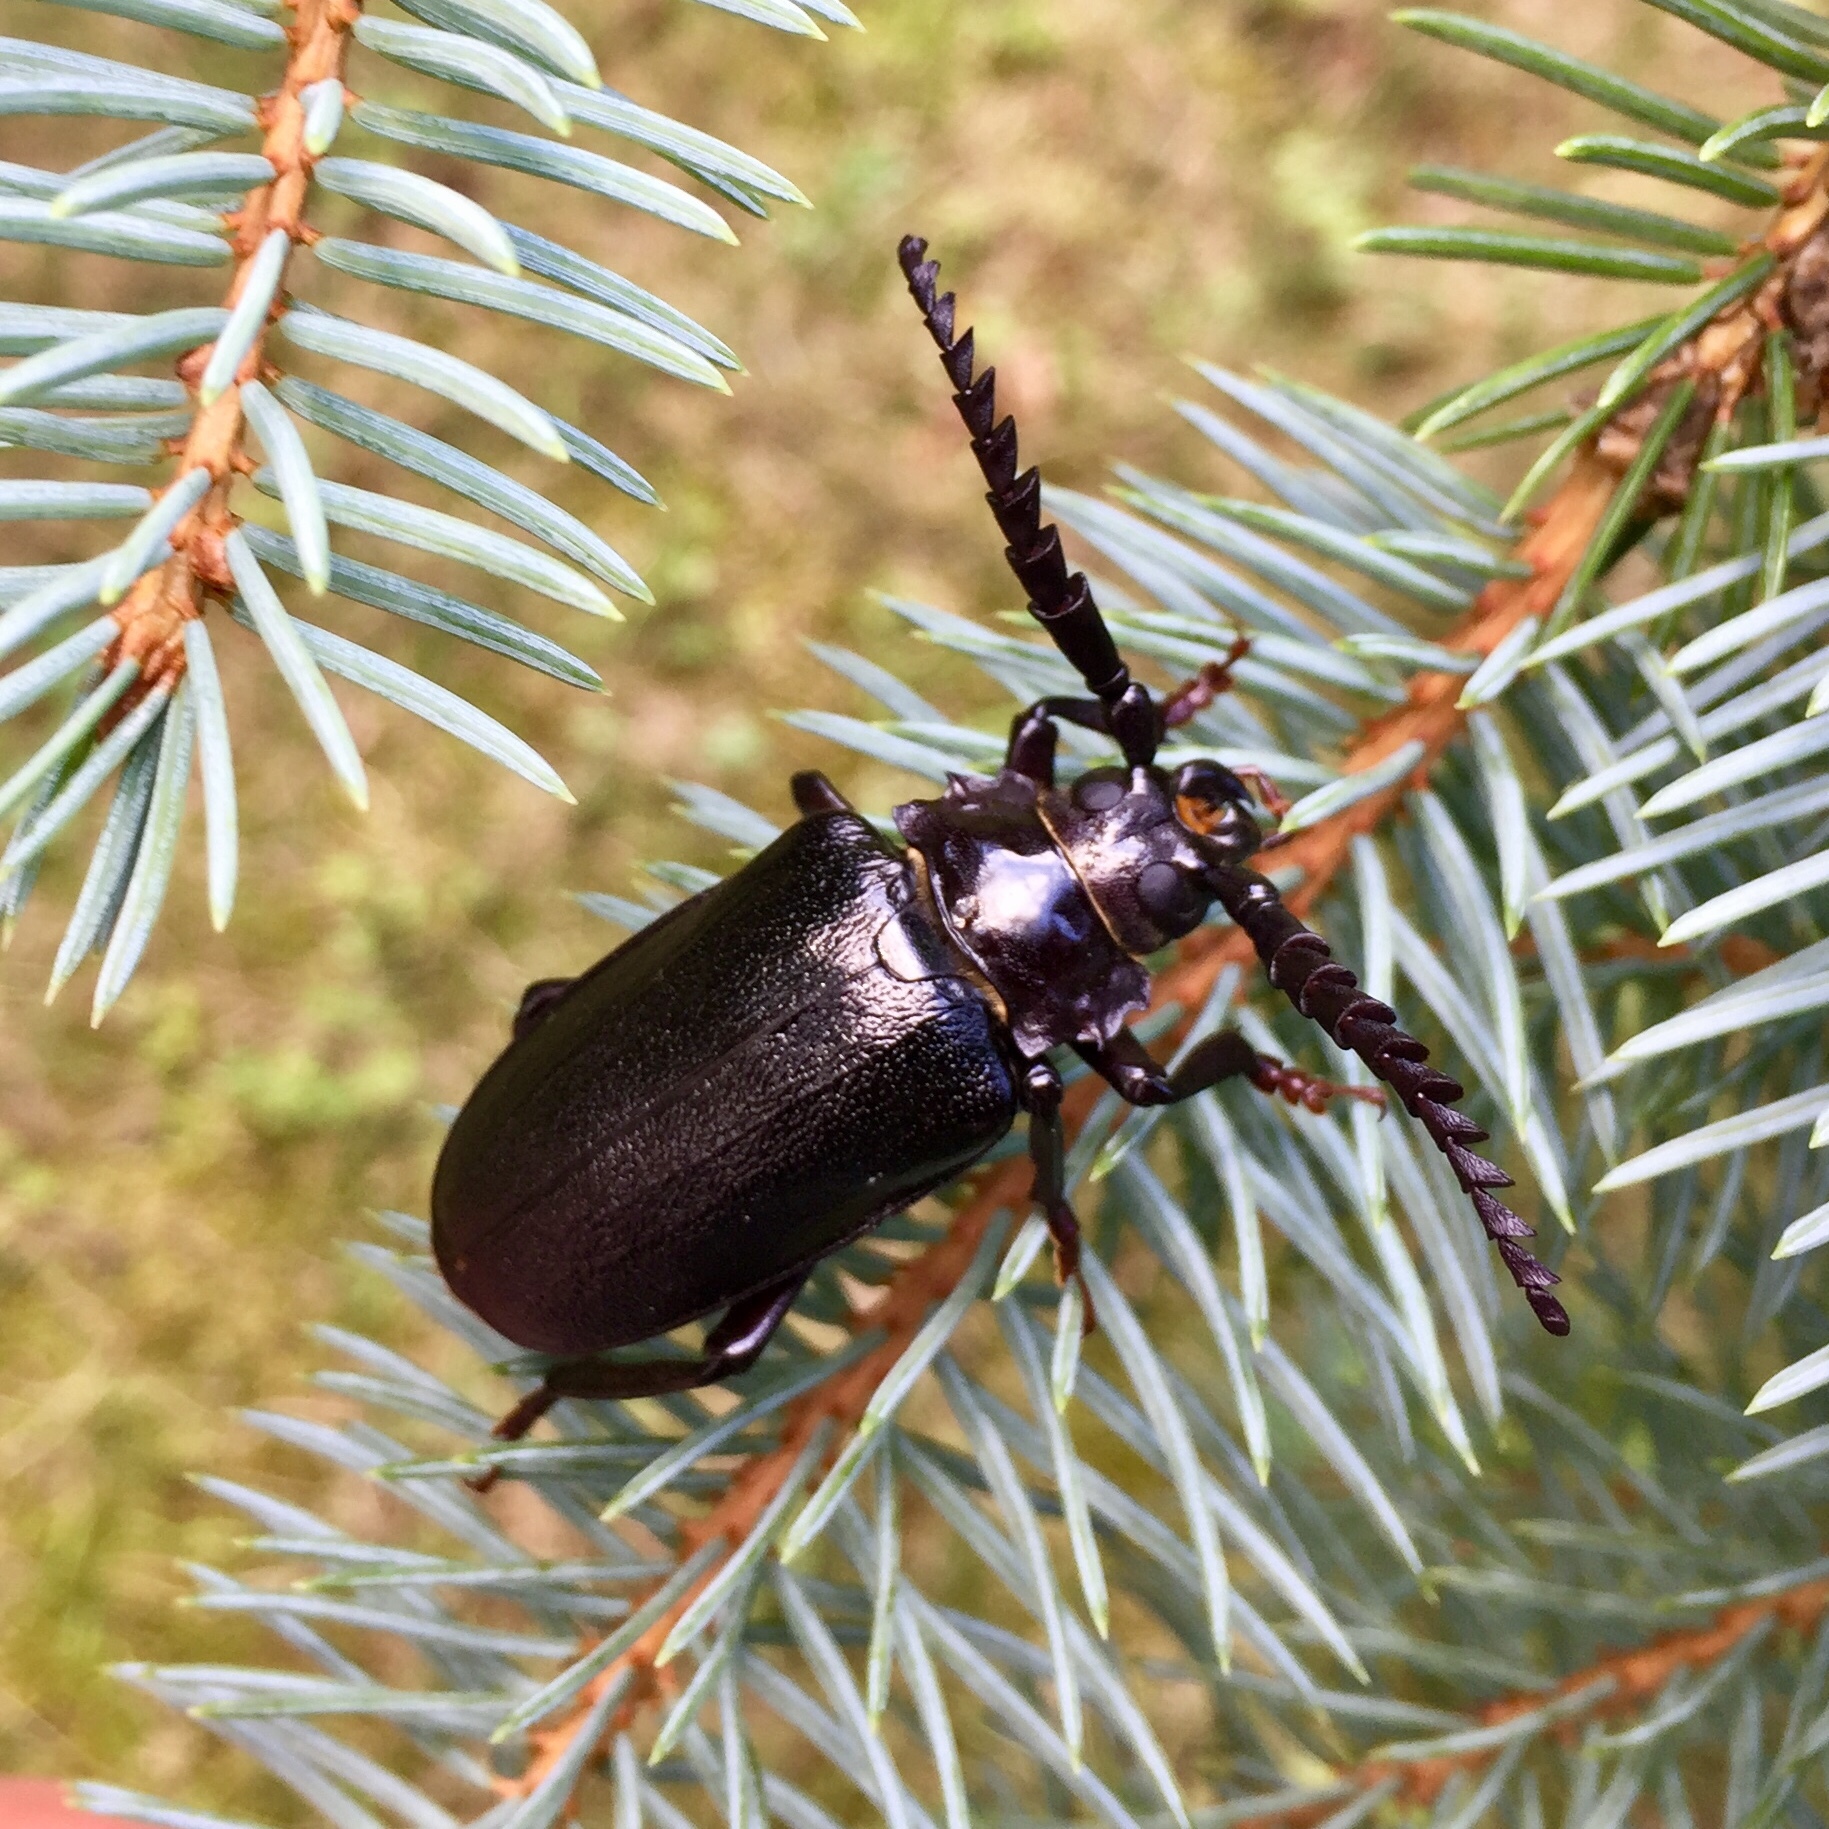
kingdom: Animalia
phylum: Arthropoda
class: Insecta
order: Coleoptera
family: Cerambycidae
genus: Prionus
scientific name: Prionus laticollis
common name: Broad necked prionus
